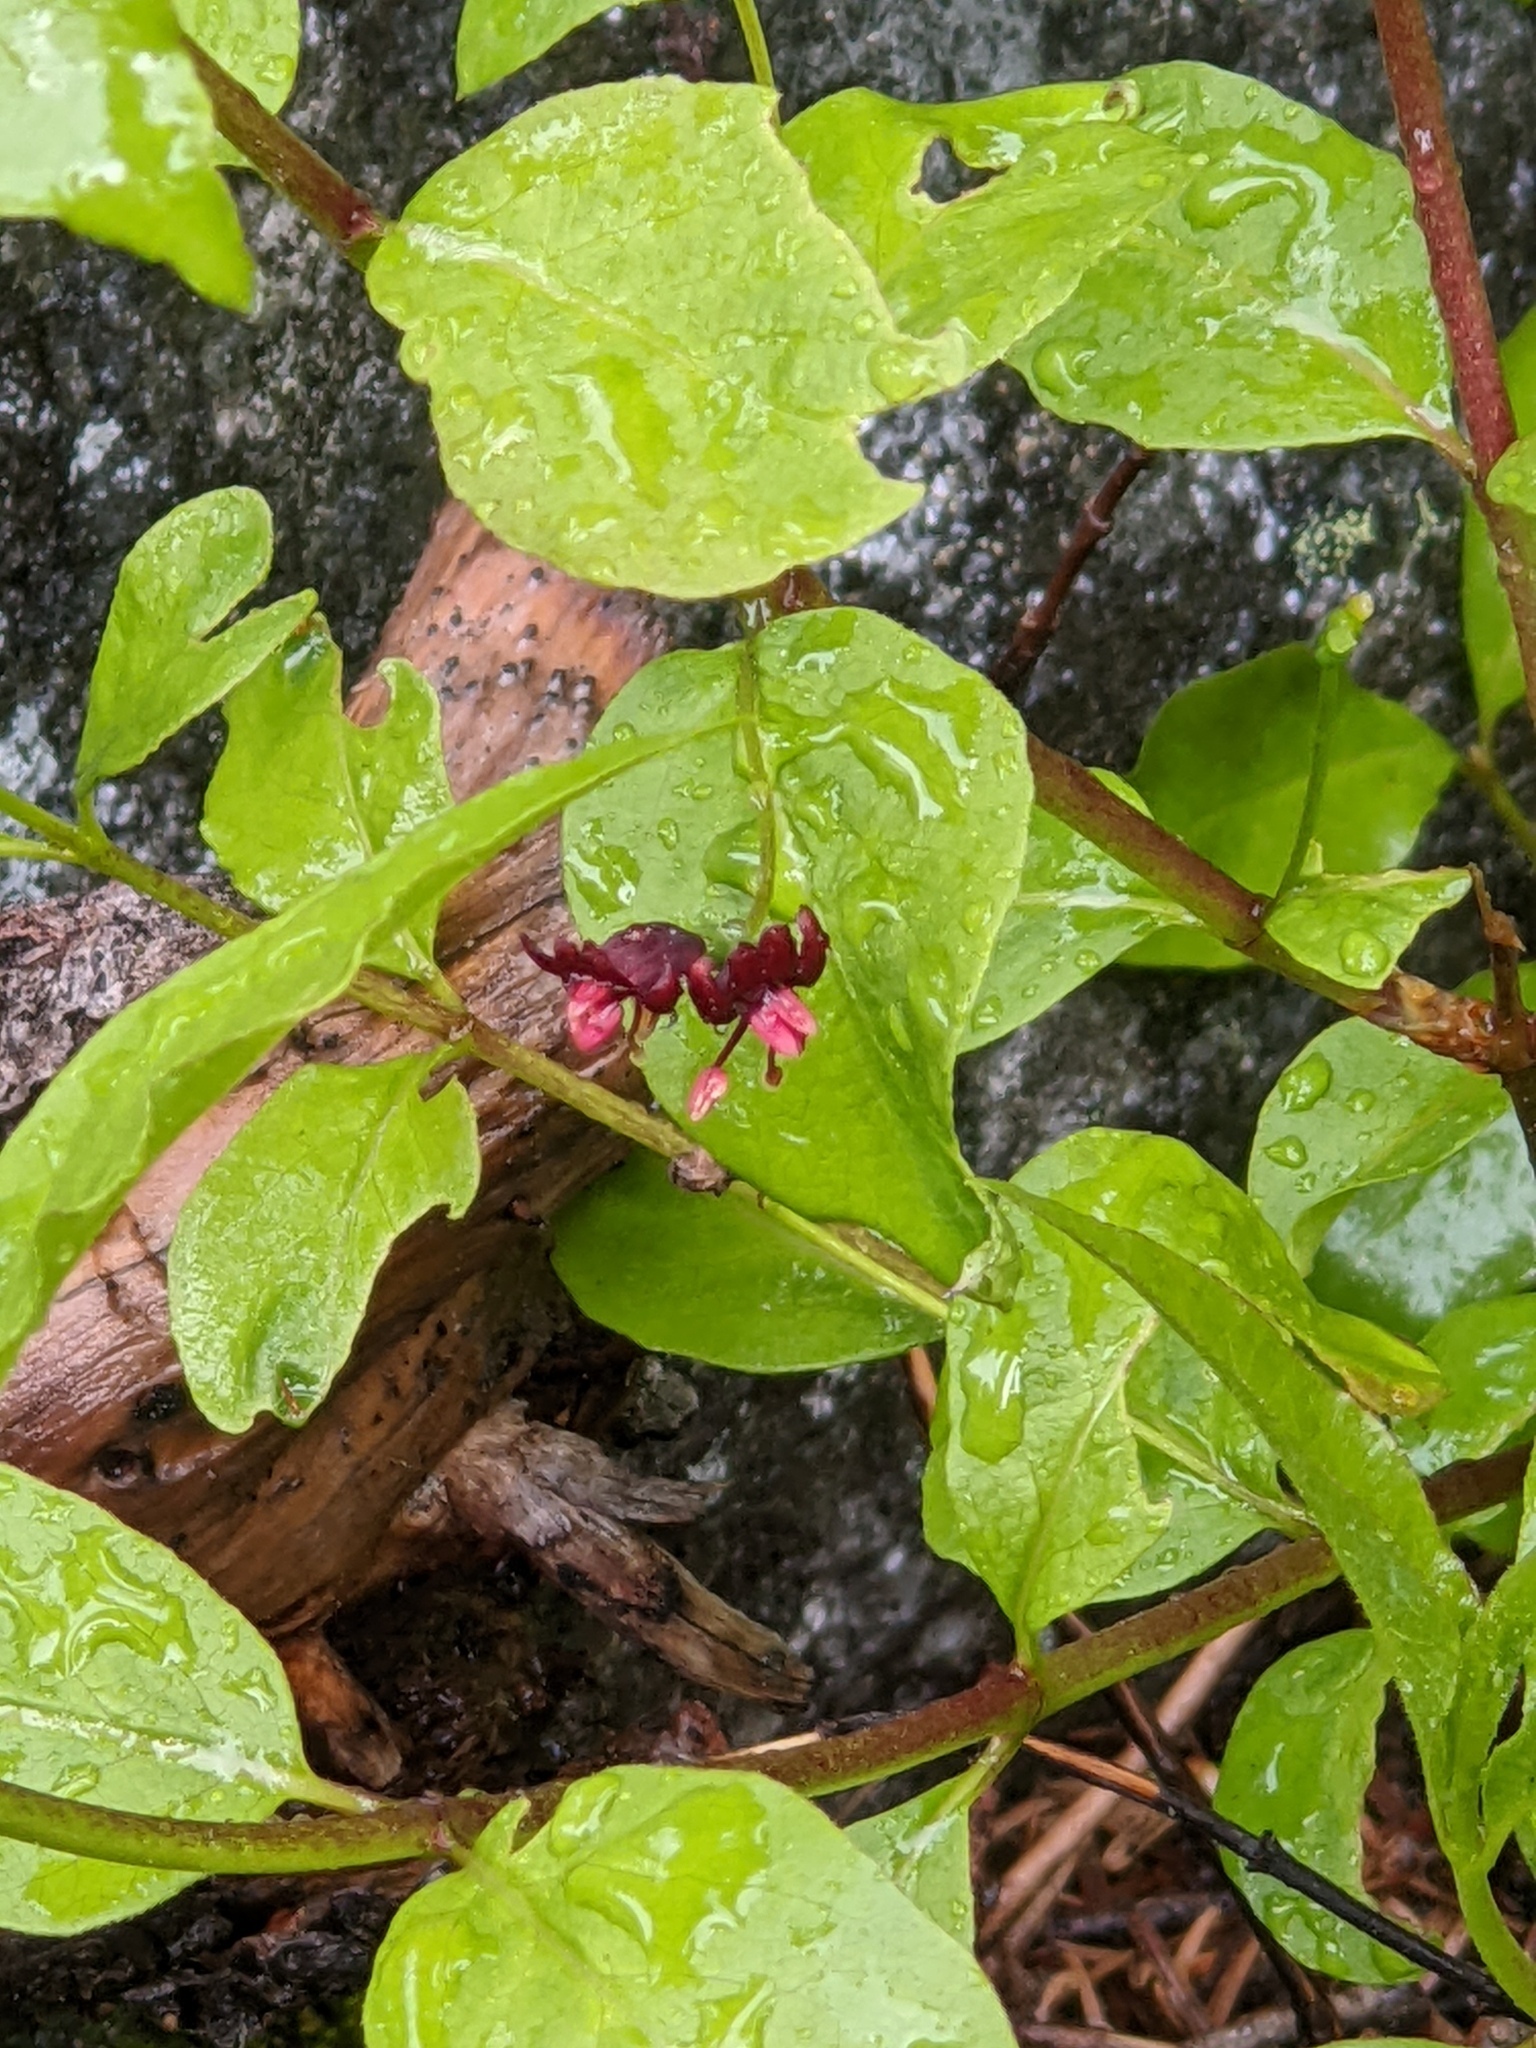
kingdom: Plantae
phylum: Tracheophyta
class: Magnoliopsida
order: Dipsacales
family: Caprifoliaceae
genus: Lonicera
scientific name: Lonicera conjugialis
